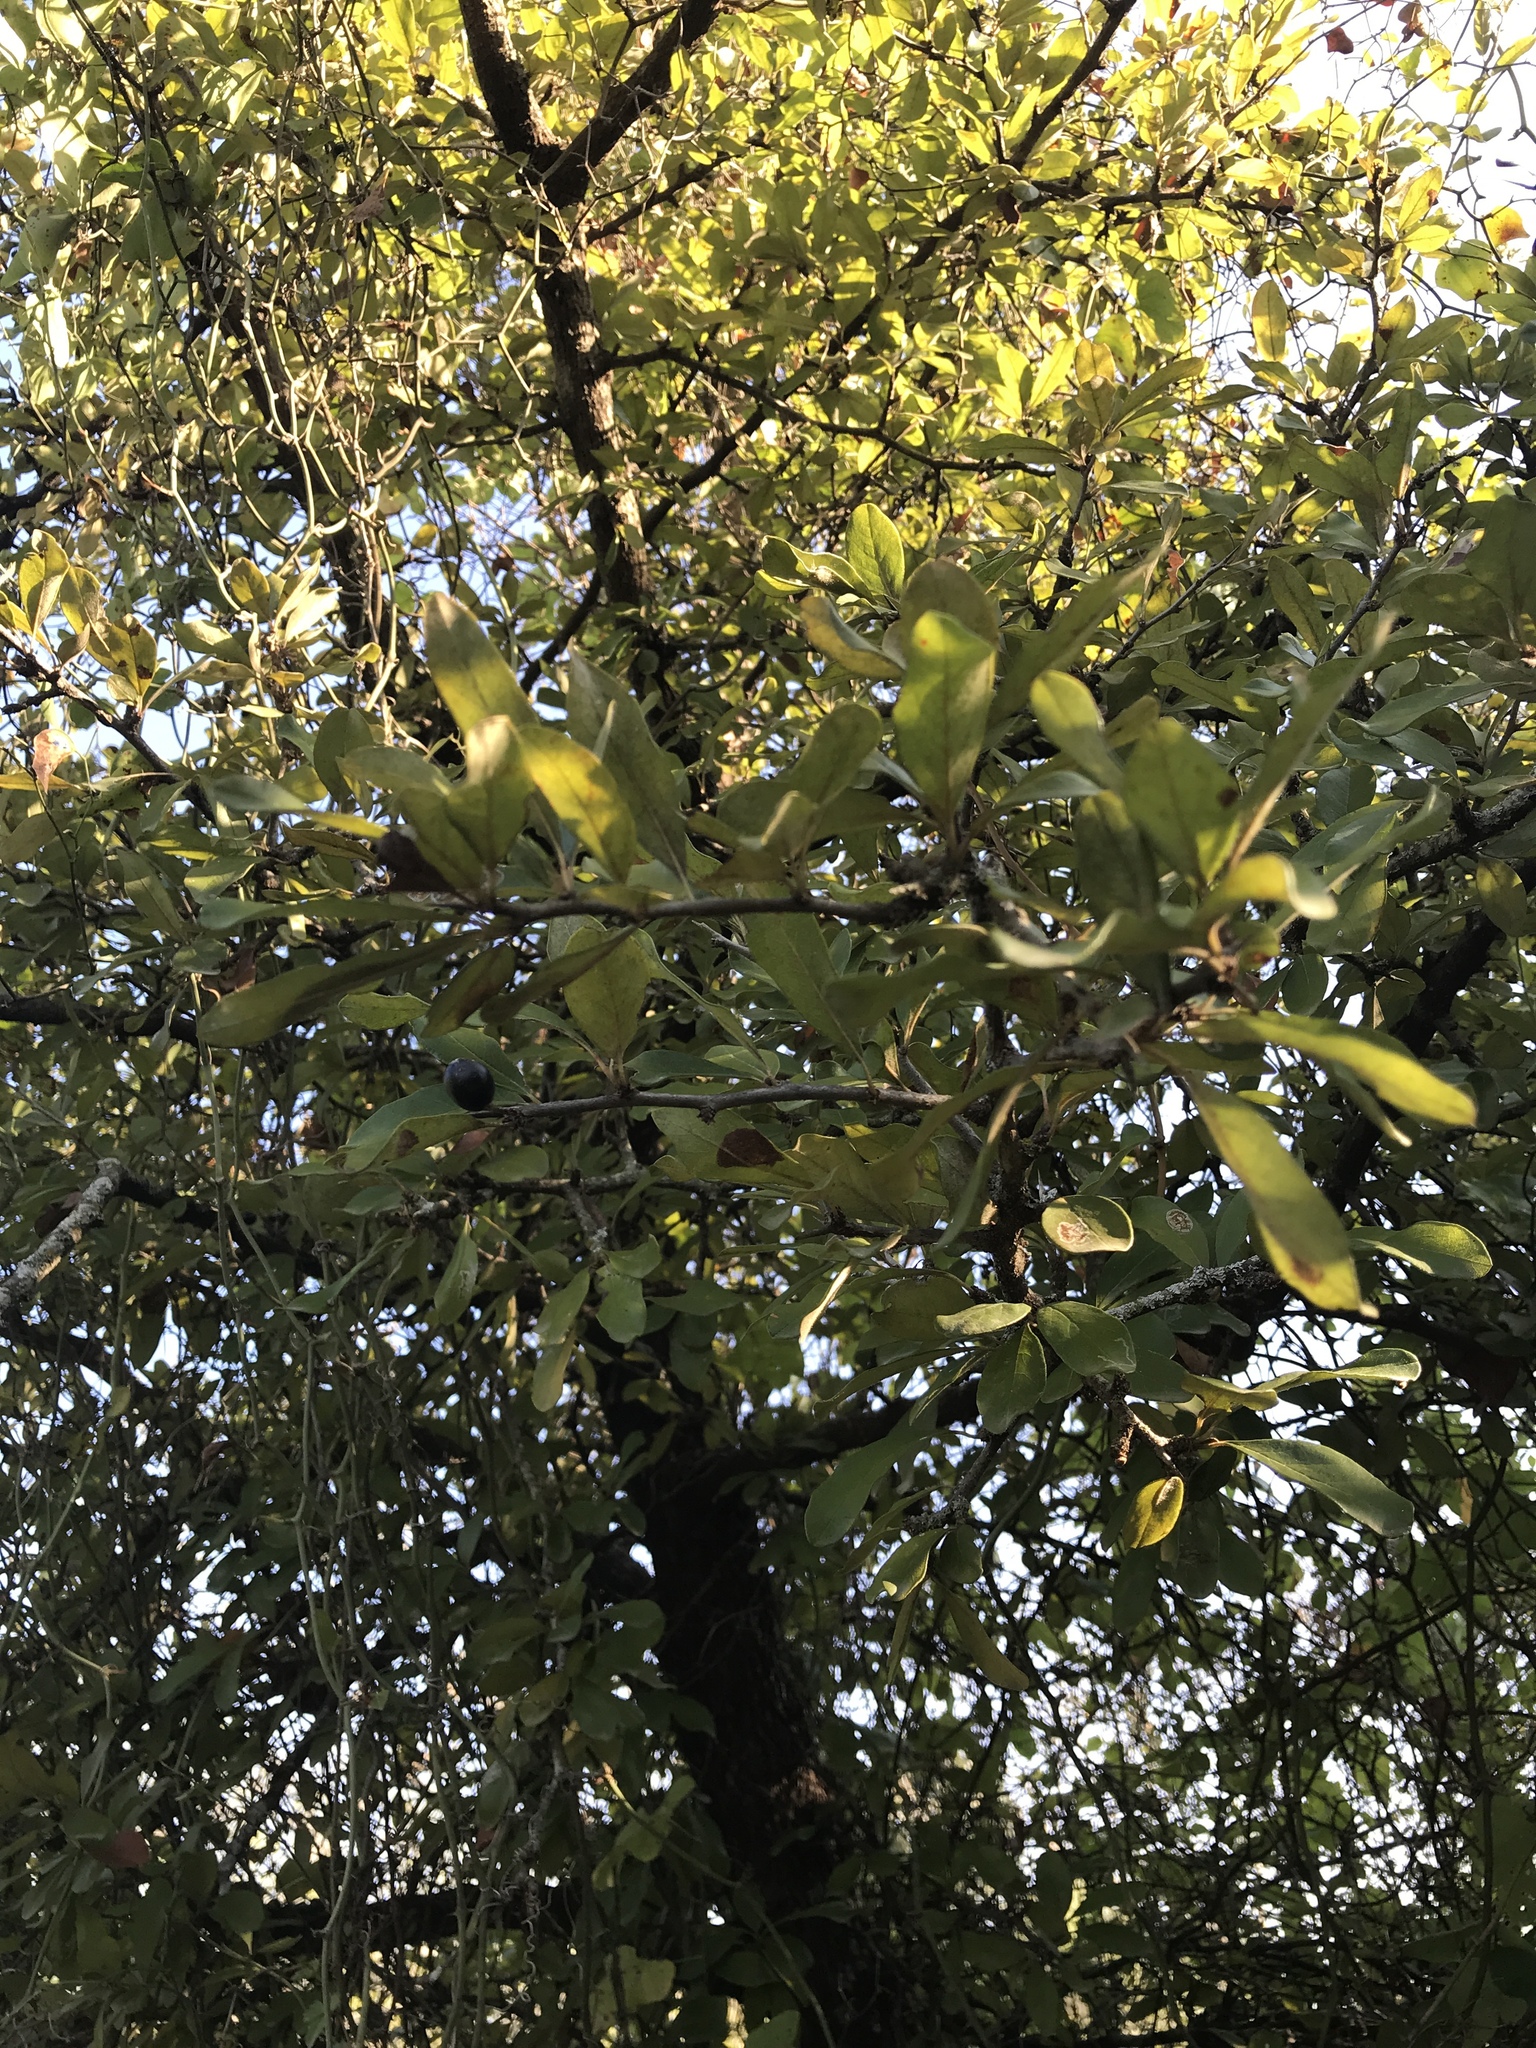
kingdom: Plantae
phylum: Tracheophyta
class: Magnoliopsida
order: Ericales
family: Sapotaceae
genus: Sideroxylon
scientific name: Sideroxylon lanuginosum
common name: Chittamwood
